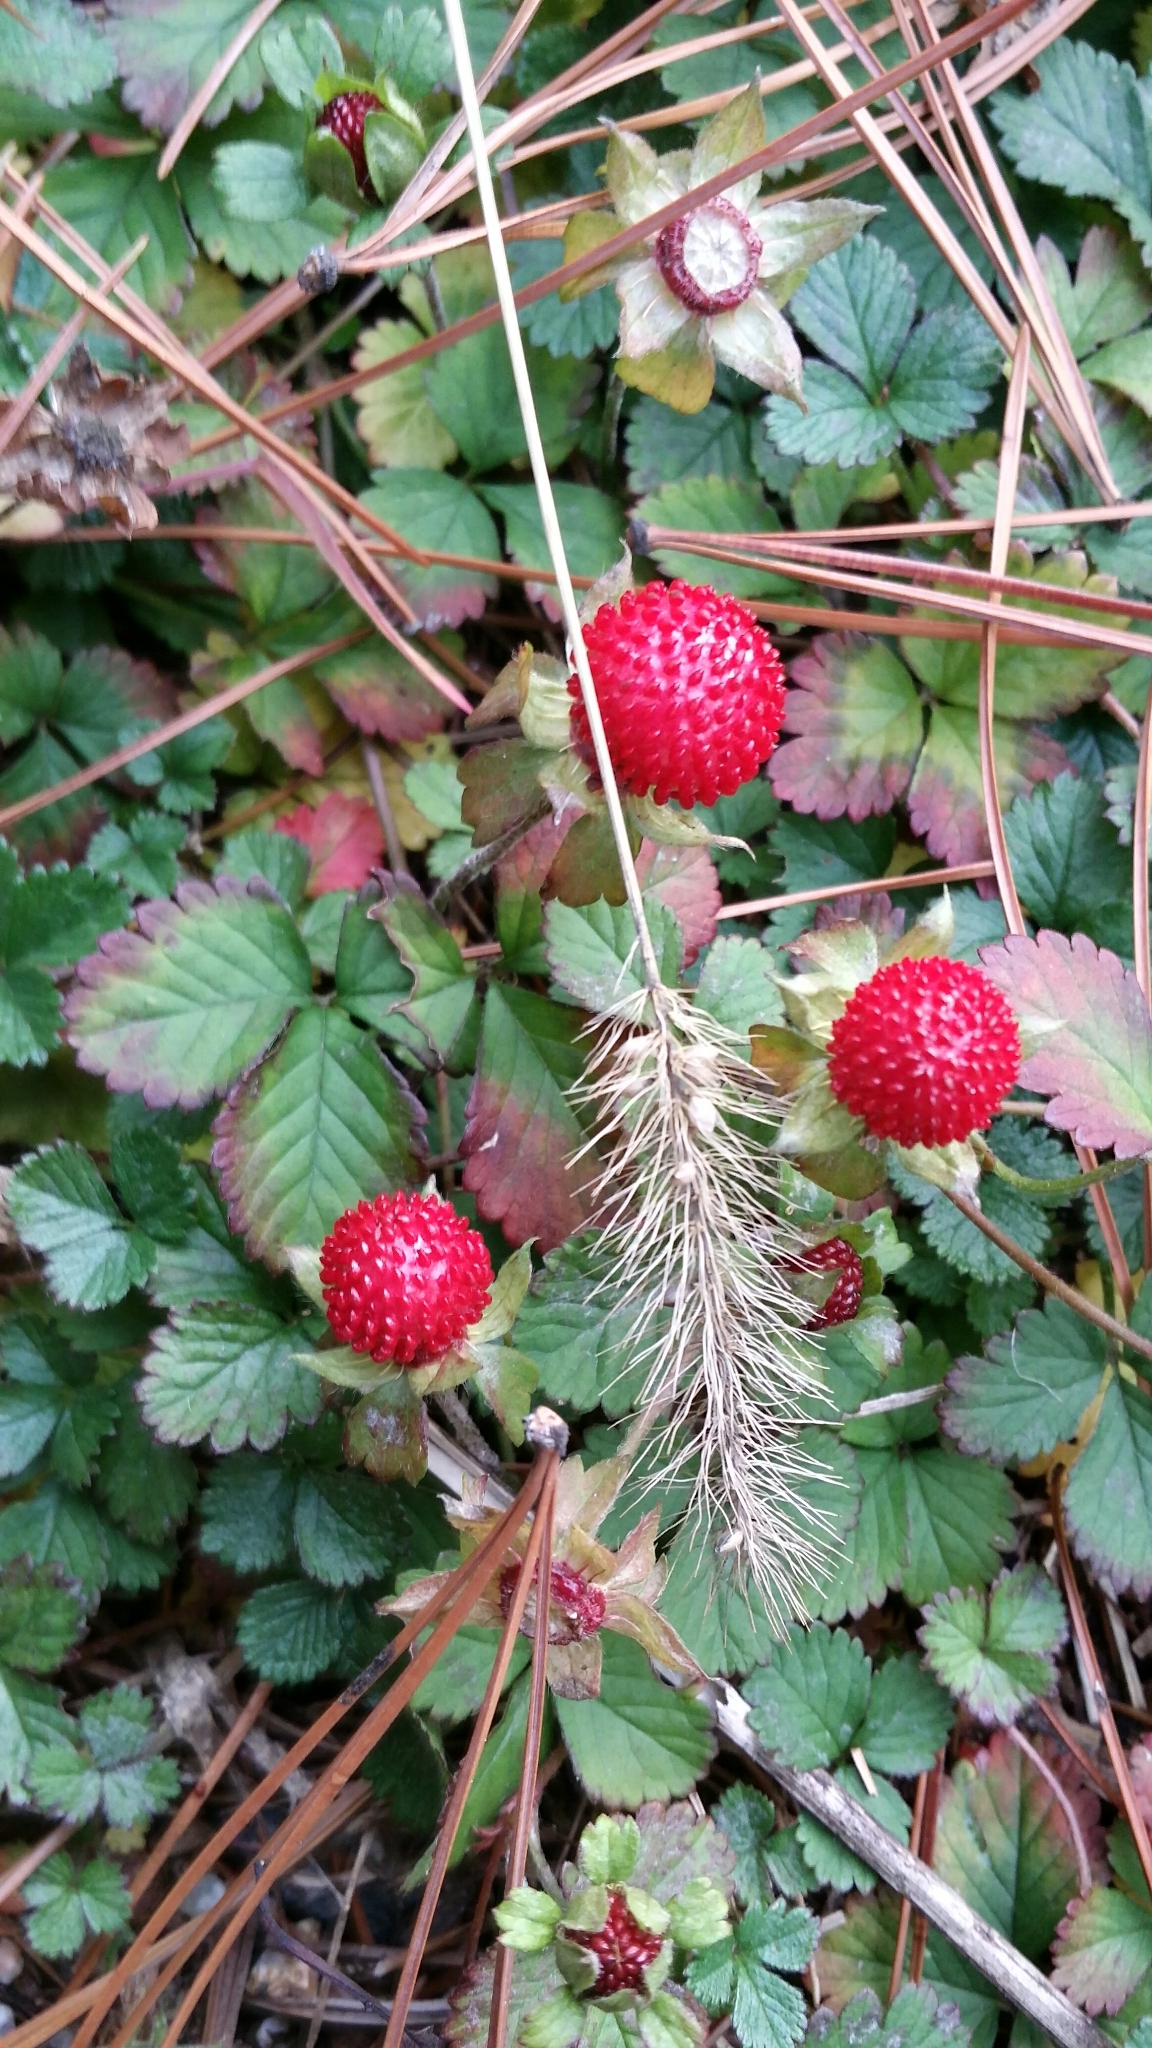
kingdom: Plantae
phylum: Tracheophyta
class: Magnoliopsida
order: Rosales
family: Rosaceae
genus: Potentilla
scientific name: Potentilla indica
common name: Yellow-flowered strawberry
